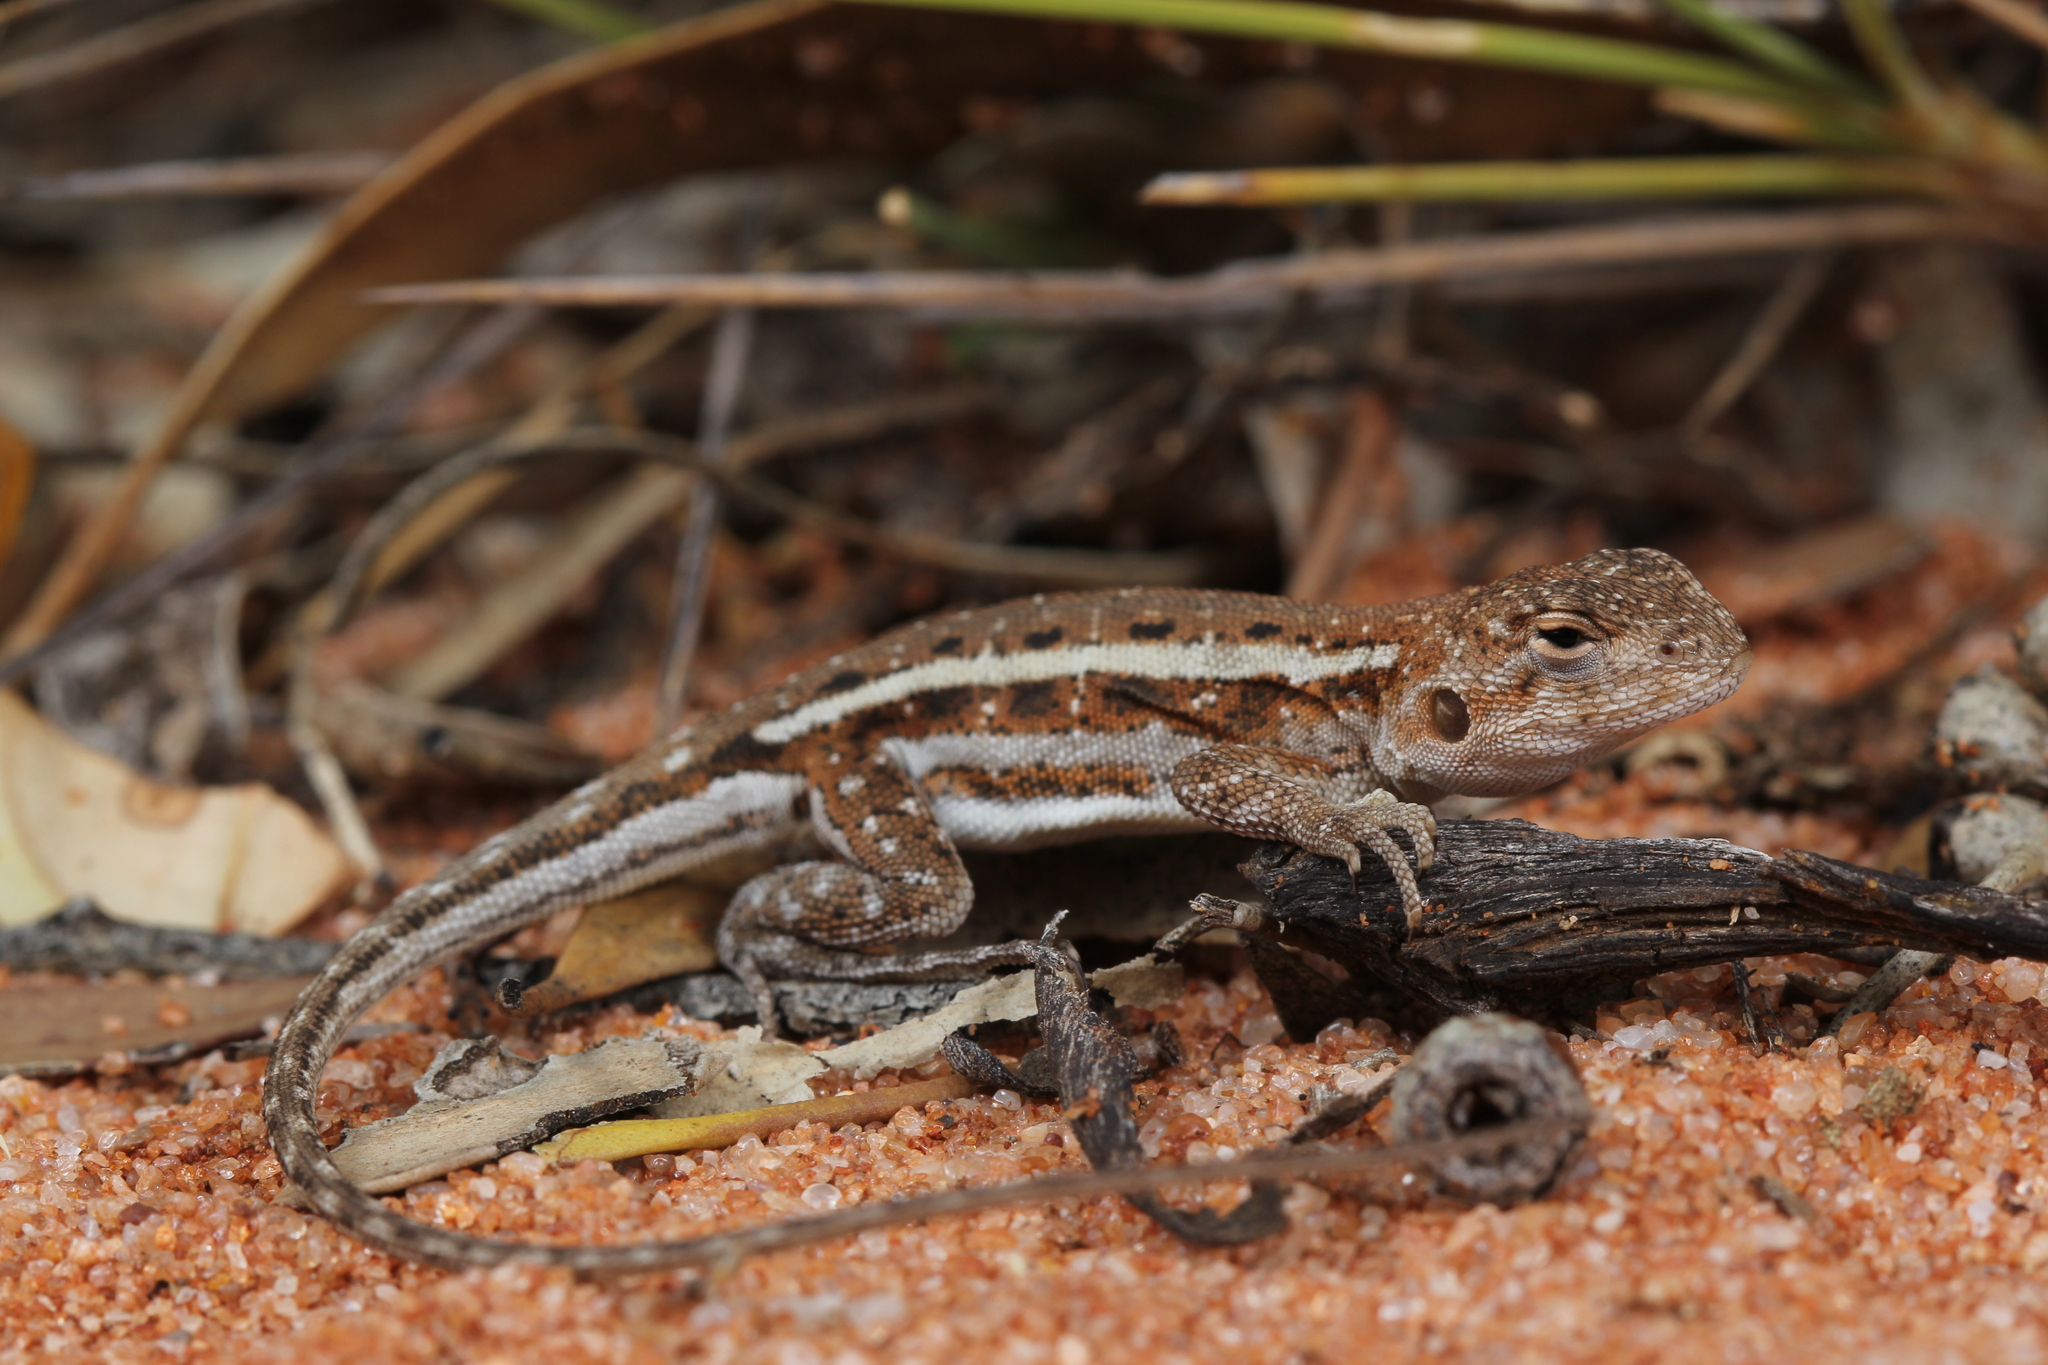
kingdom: Animalia
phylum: Chordata
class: Squamata
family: Agamidae
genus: Ctenophorus
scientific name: Ctenophorus
